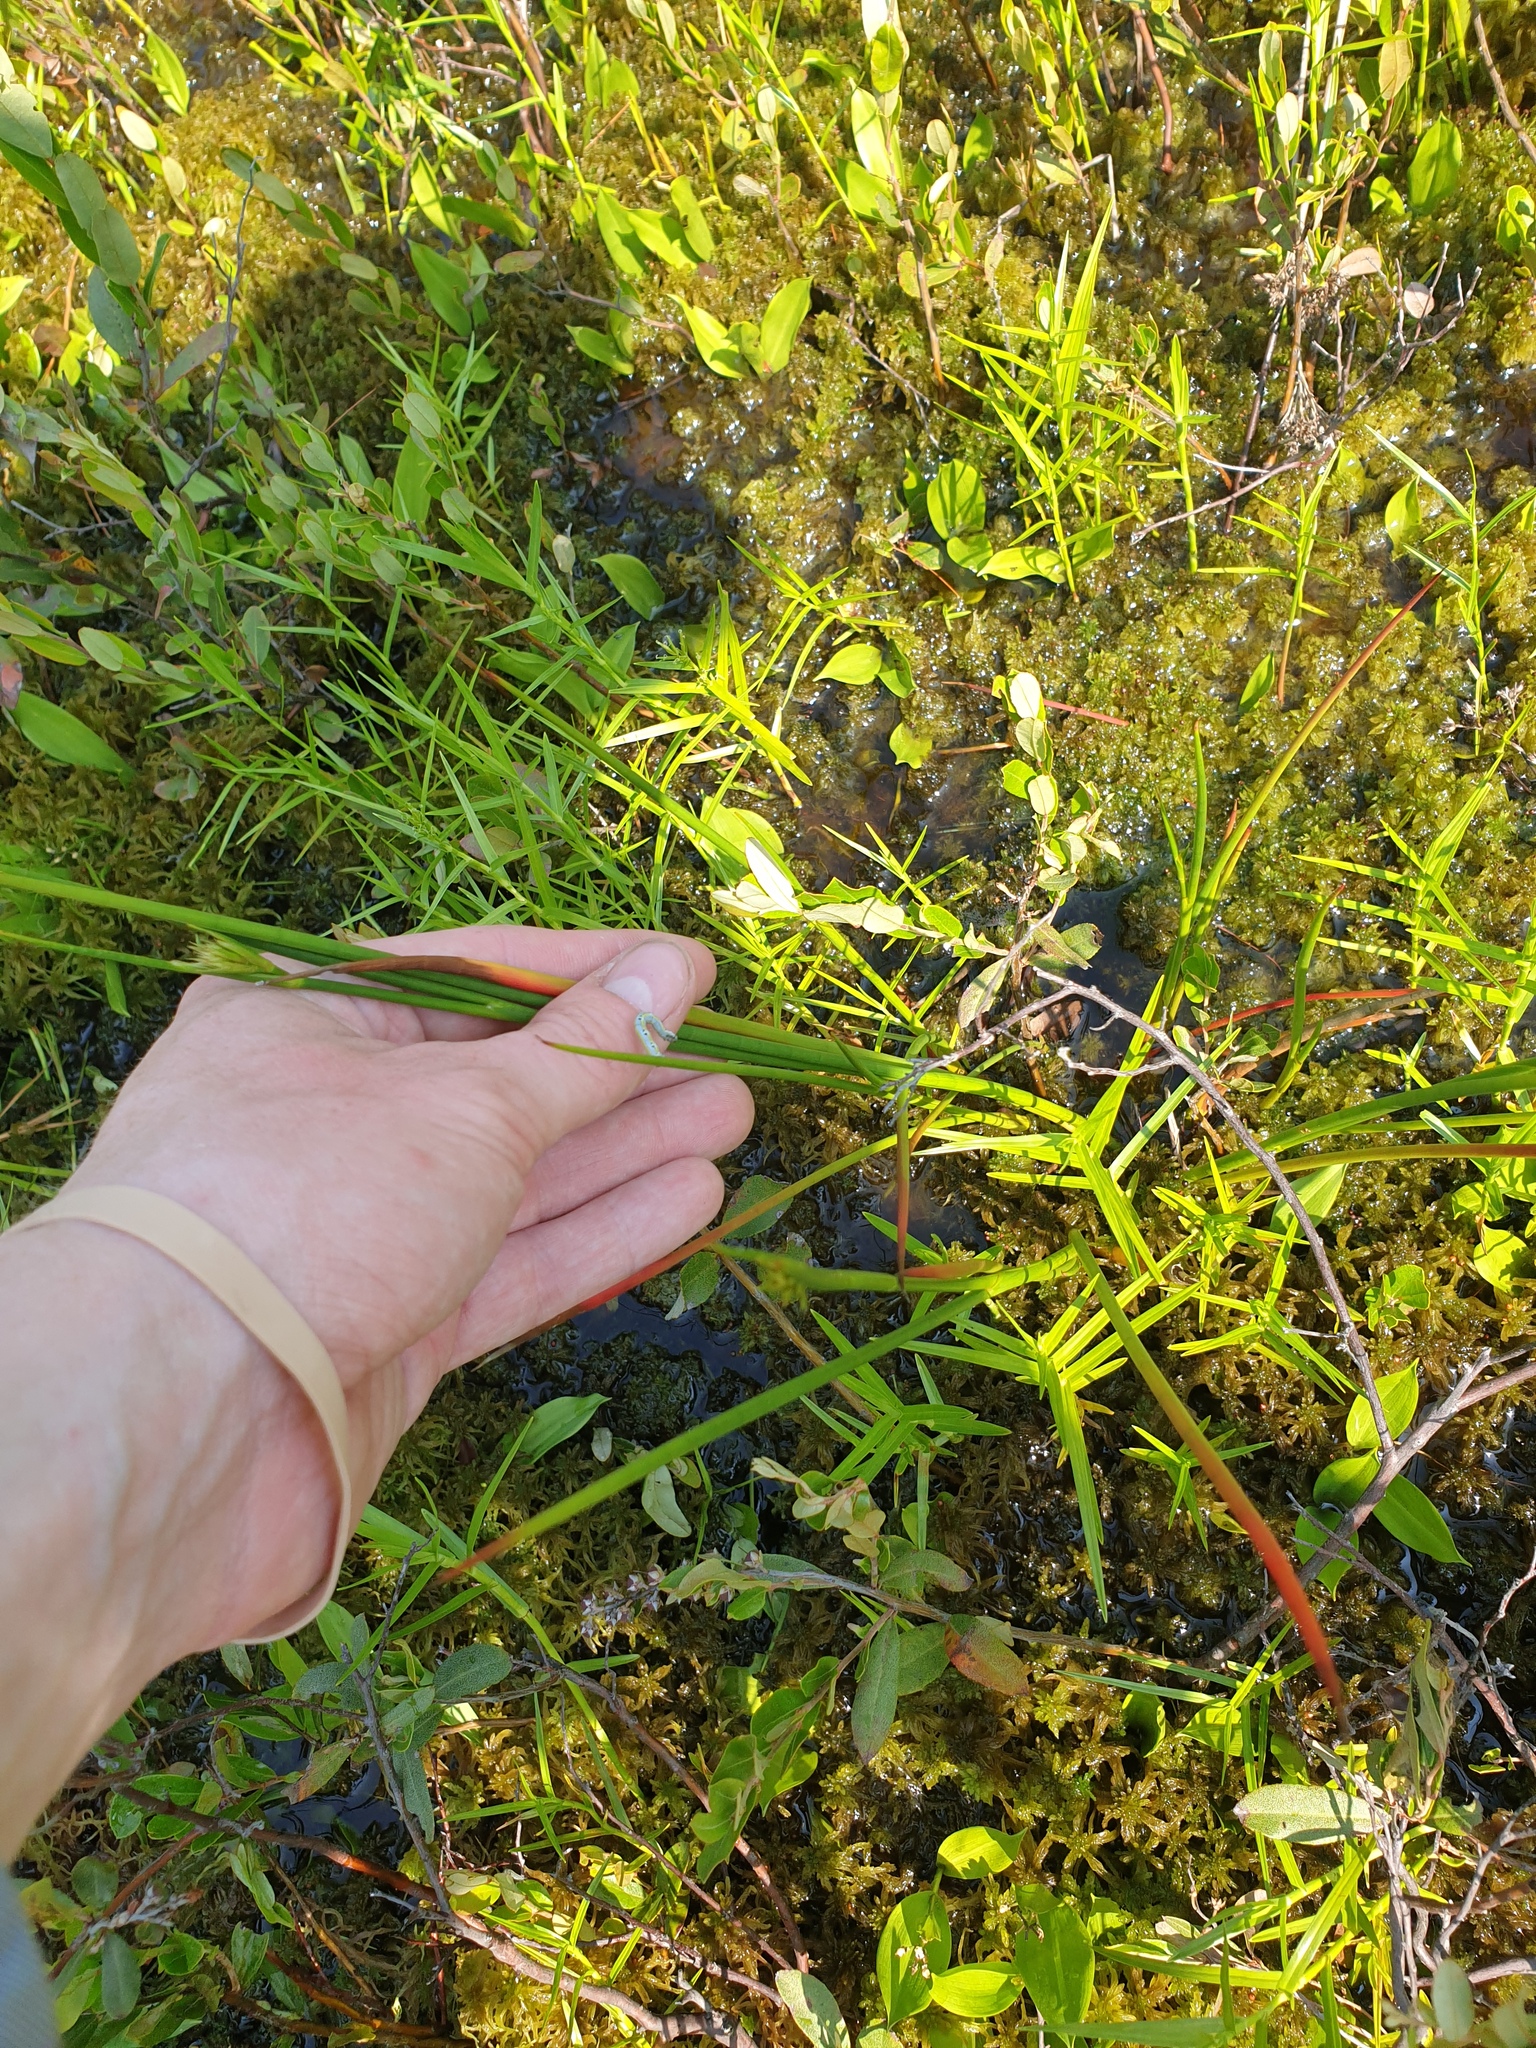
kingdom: Plantae
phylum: Tracheophyta
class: Liliopsida
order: Asparagales
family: Asparagaceae
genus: Maianthemum
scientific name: Maianthemum trifolium
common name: Swamp false solomon's seal
